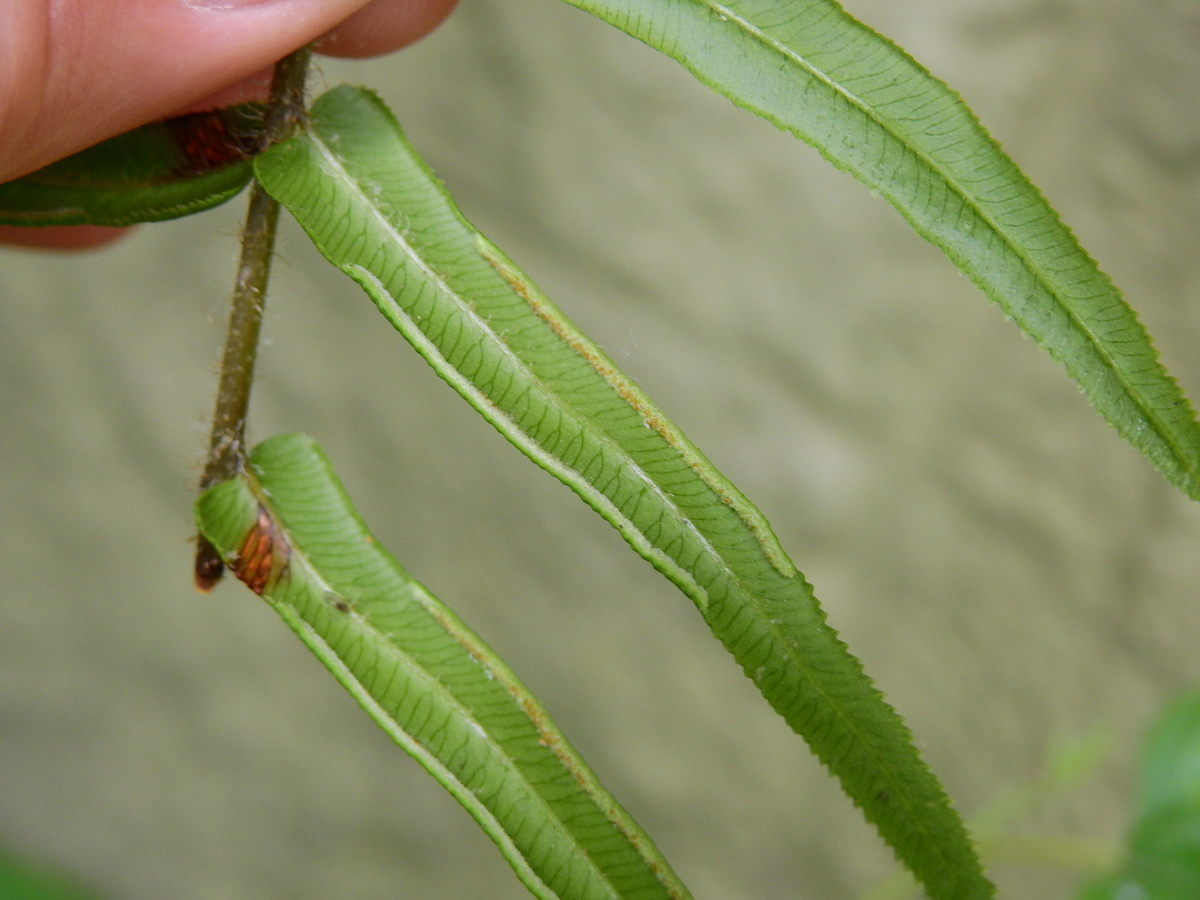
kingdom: Plantae
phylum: Tracheophyta
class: Polypodiopsida
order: Polypodiales
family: Pteridaceae
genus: Pteris
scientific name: Pteris vittata
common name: Ladder brake
